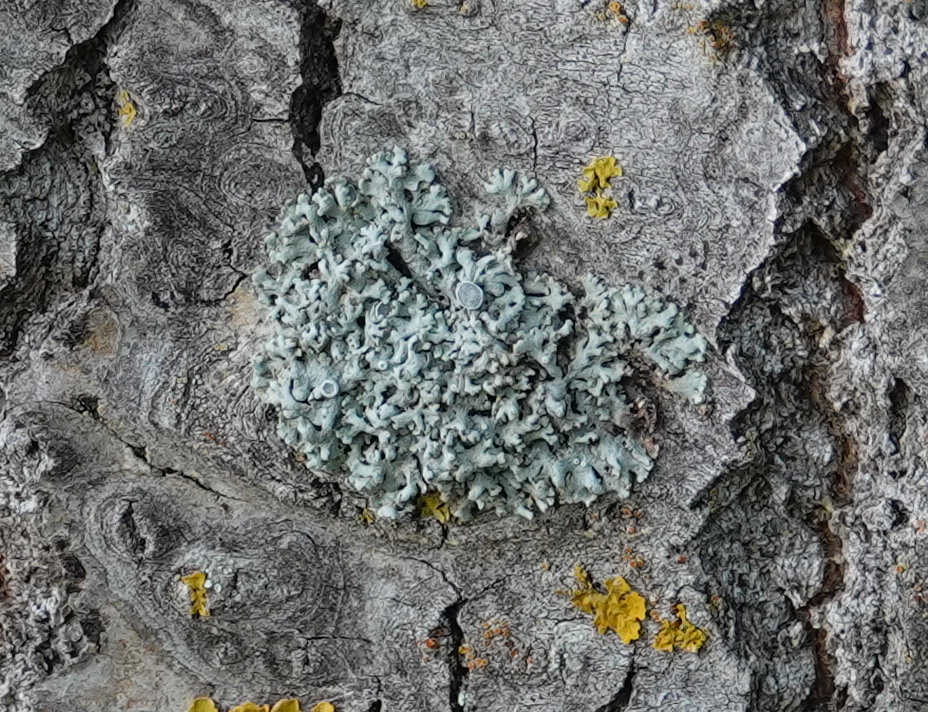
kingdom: Fungi
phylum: Ascomycota
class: Lecanoromycetes
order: Caliciales
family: Physciaceae
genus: Physcia
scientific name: Physcia stellaris
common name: Star rosette lichen
